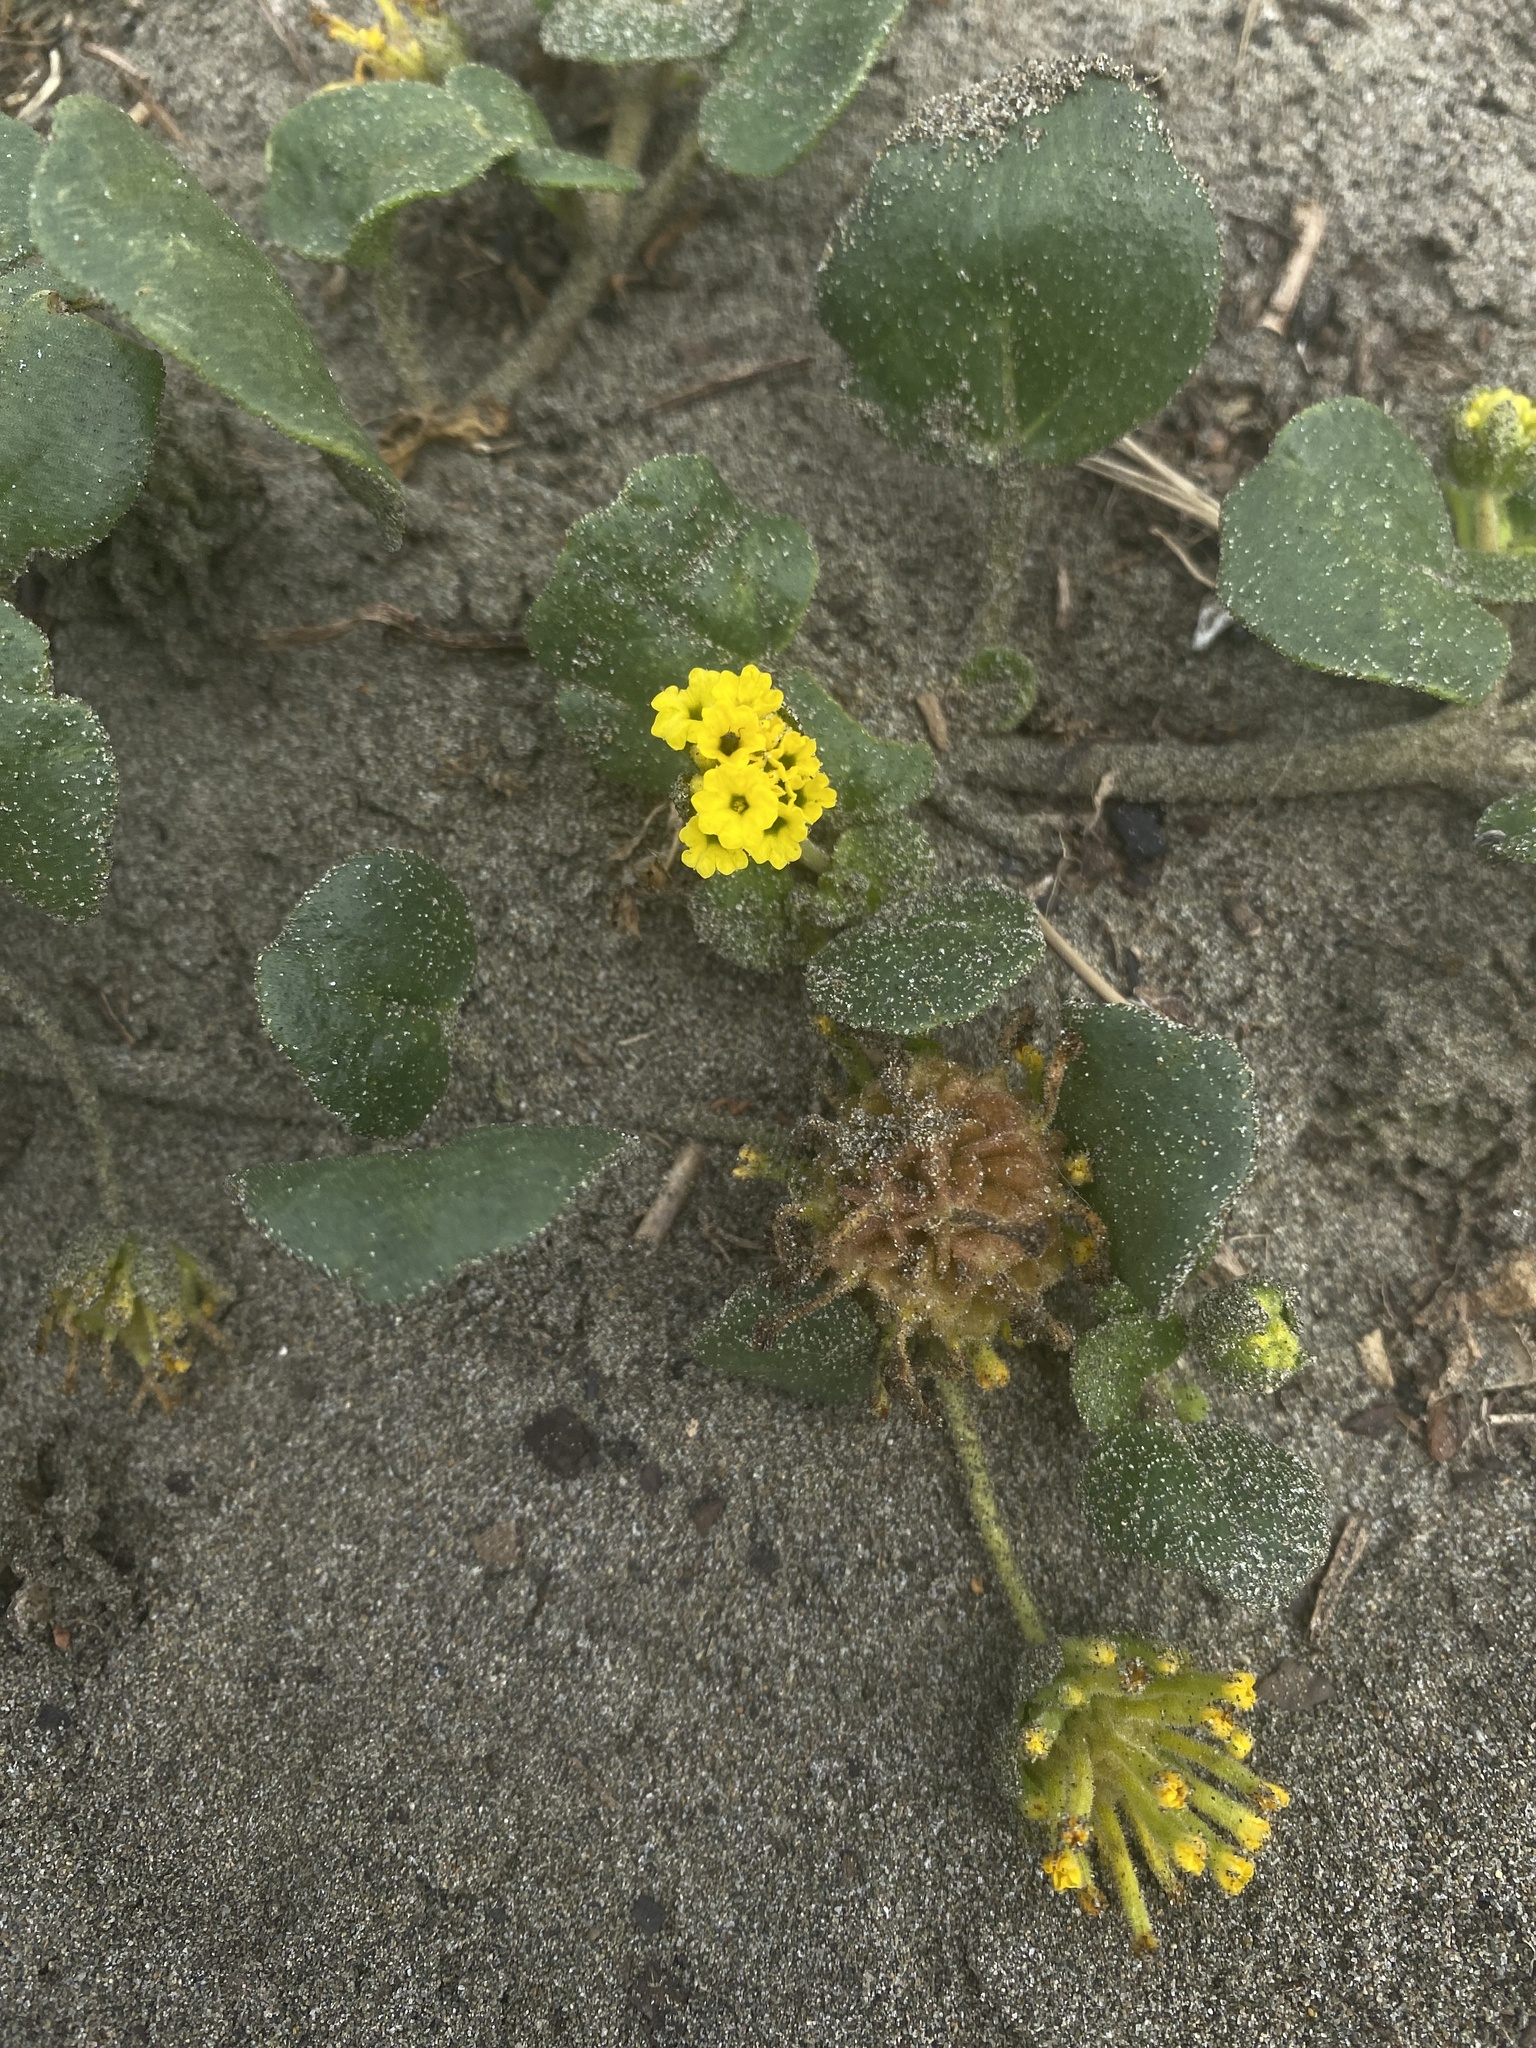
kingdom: Plantae
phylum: Tracheophyta
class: Magnoliopsida
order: Caryophyllales
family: Nyctaginaceae
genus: Abronia
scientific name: Abronia latifolia
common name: Yellow sand-verbena
